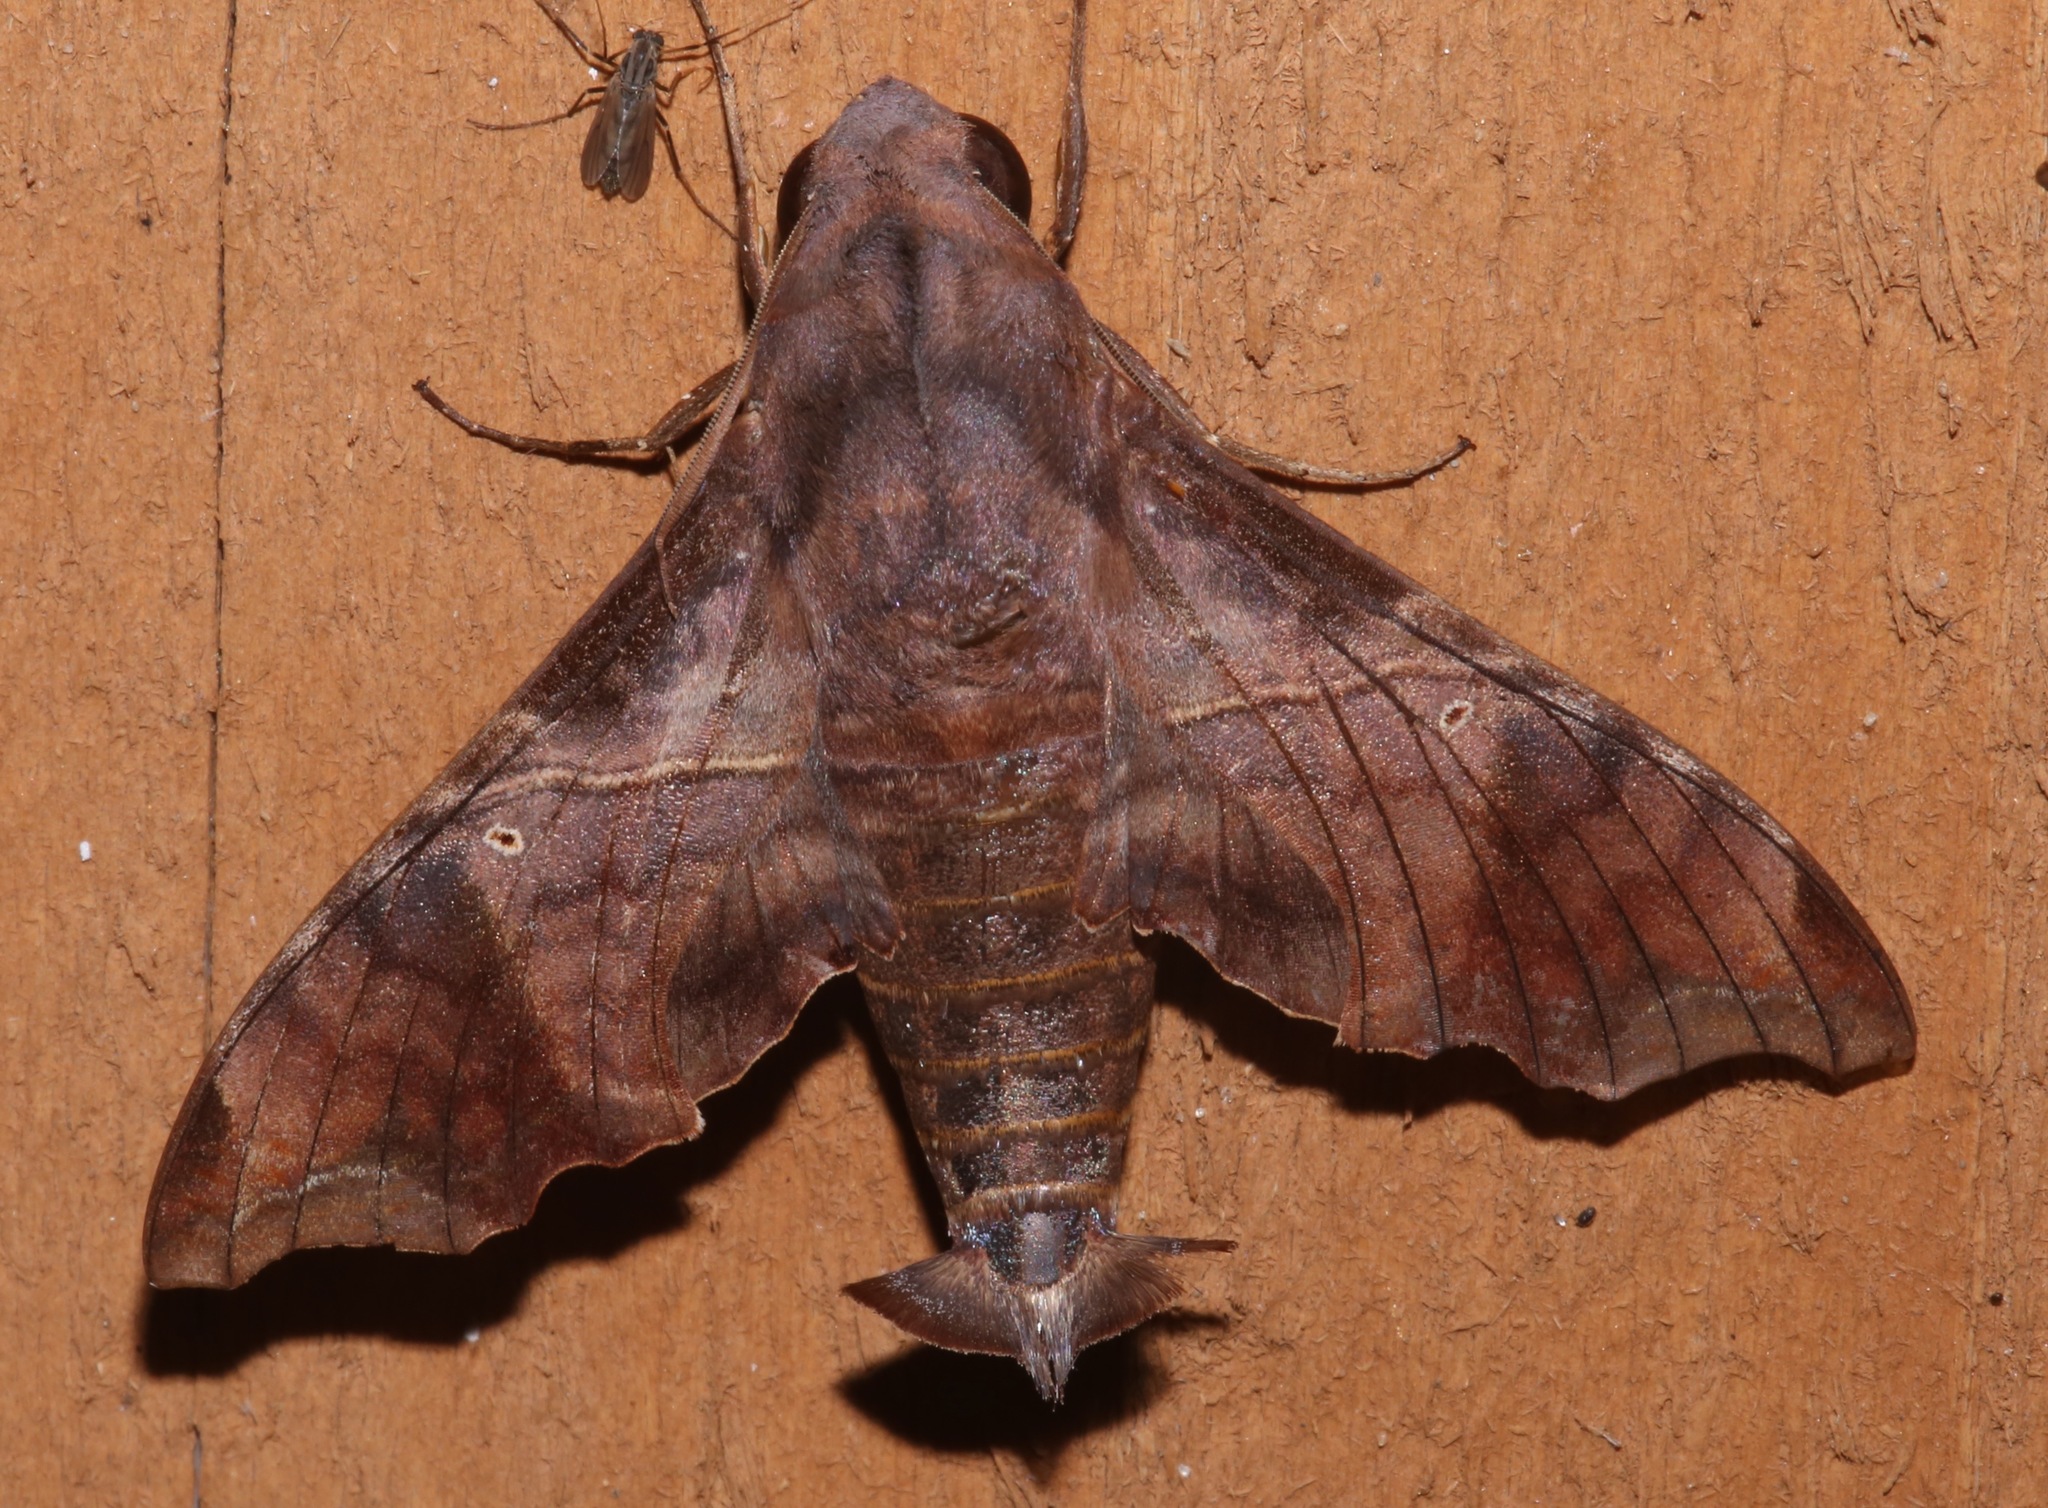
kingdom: Animalia
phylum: Arthropoda
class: Insecta
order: Lepidoptera
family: Sphingidae
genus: Enyo
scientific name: Enyo lugubris
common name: Mournful sphinx
